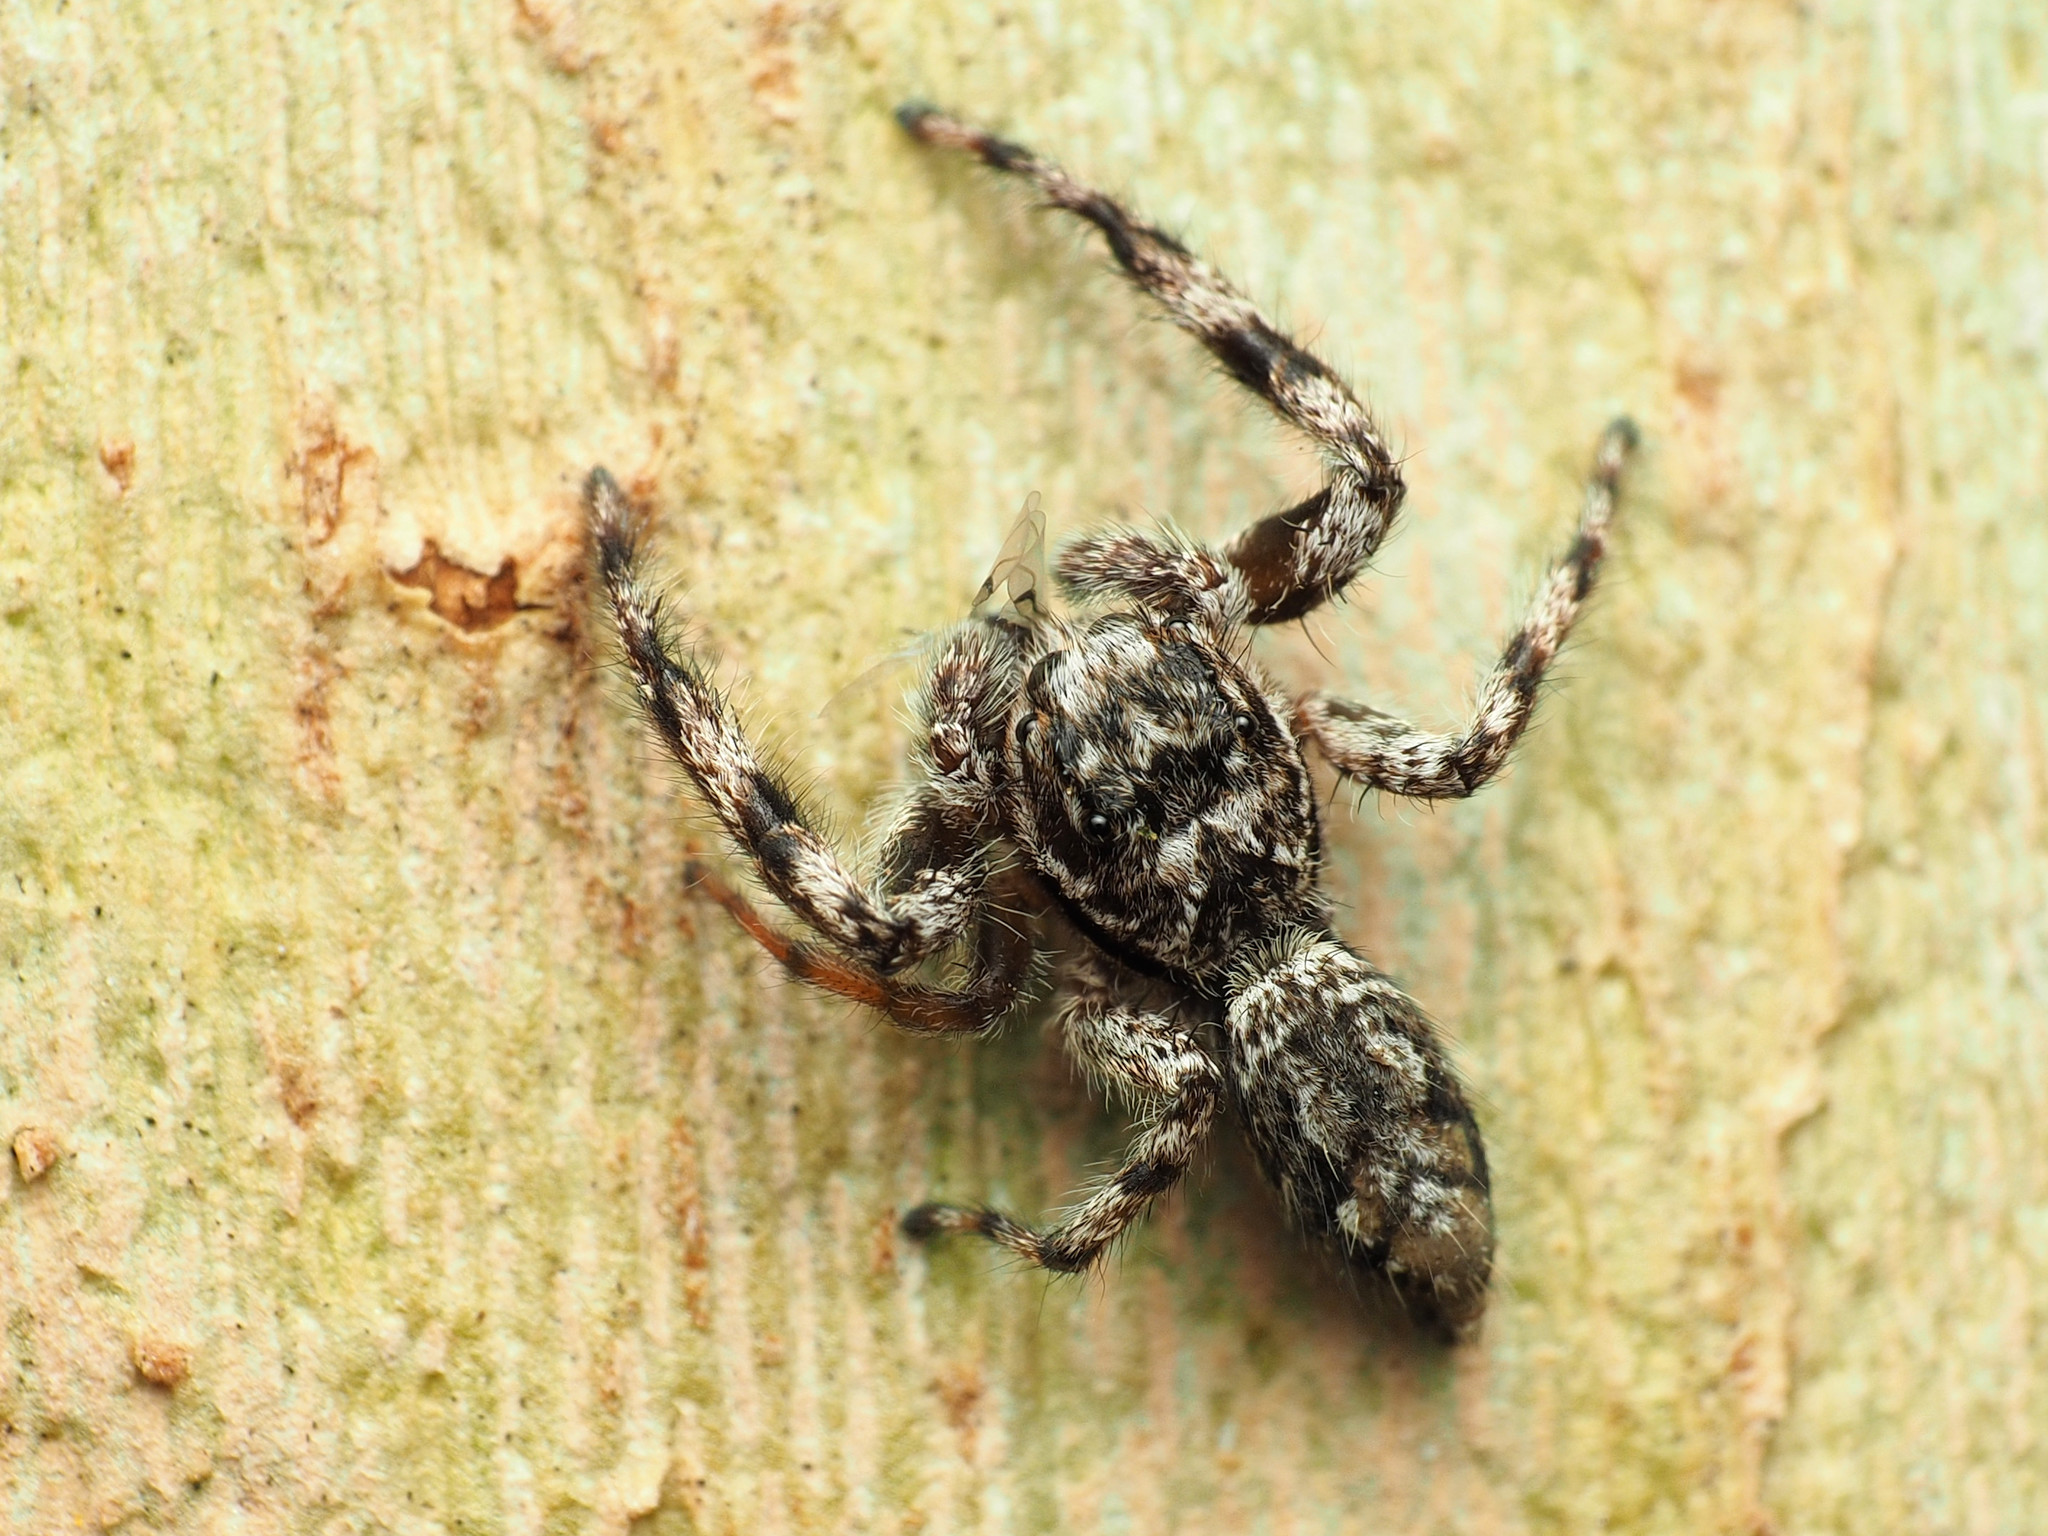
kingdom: Animalia
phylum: Arthropoda
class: Arachnida
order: Araneae
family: Salticidae
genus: Platycryptus
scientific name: Platycryptus undatus
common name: Tan jumping spider
